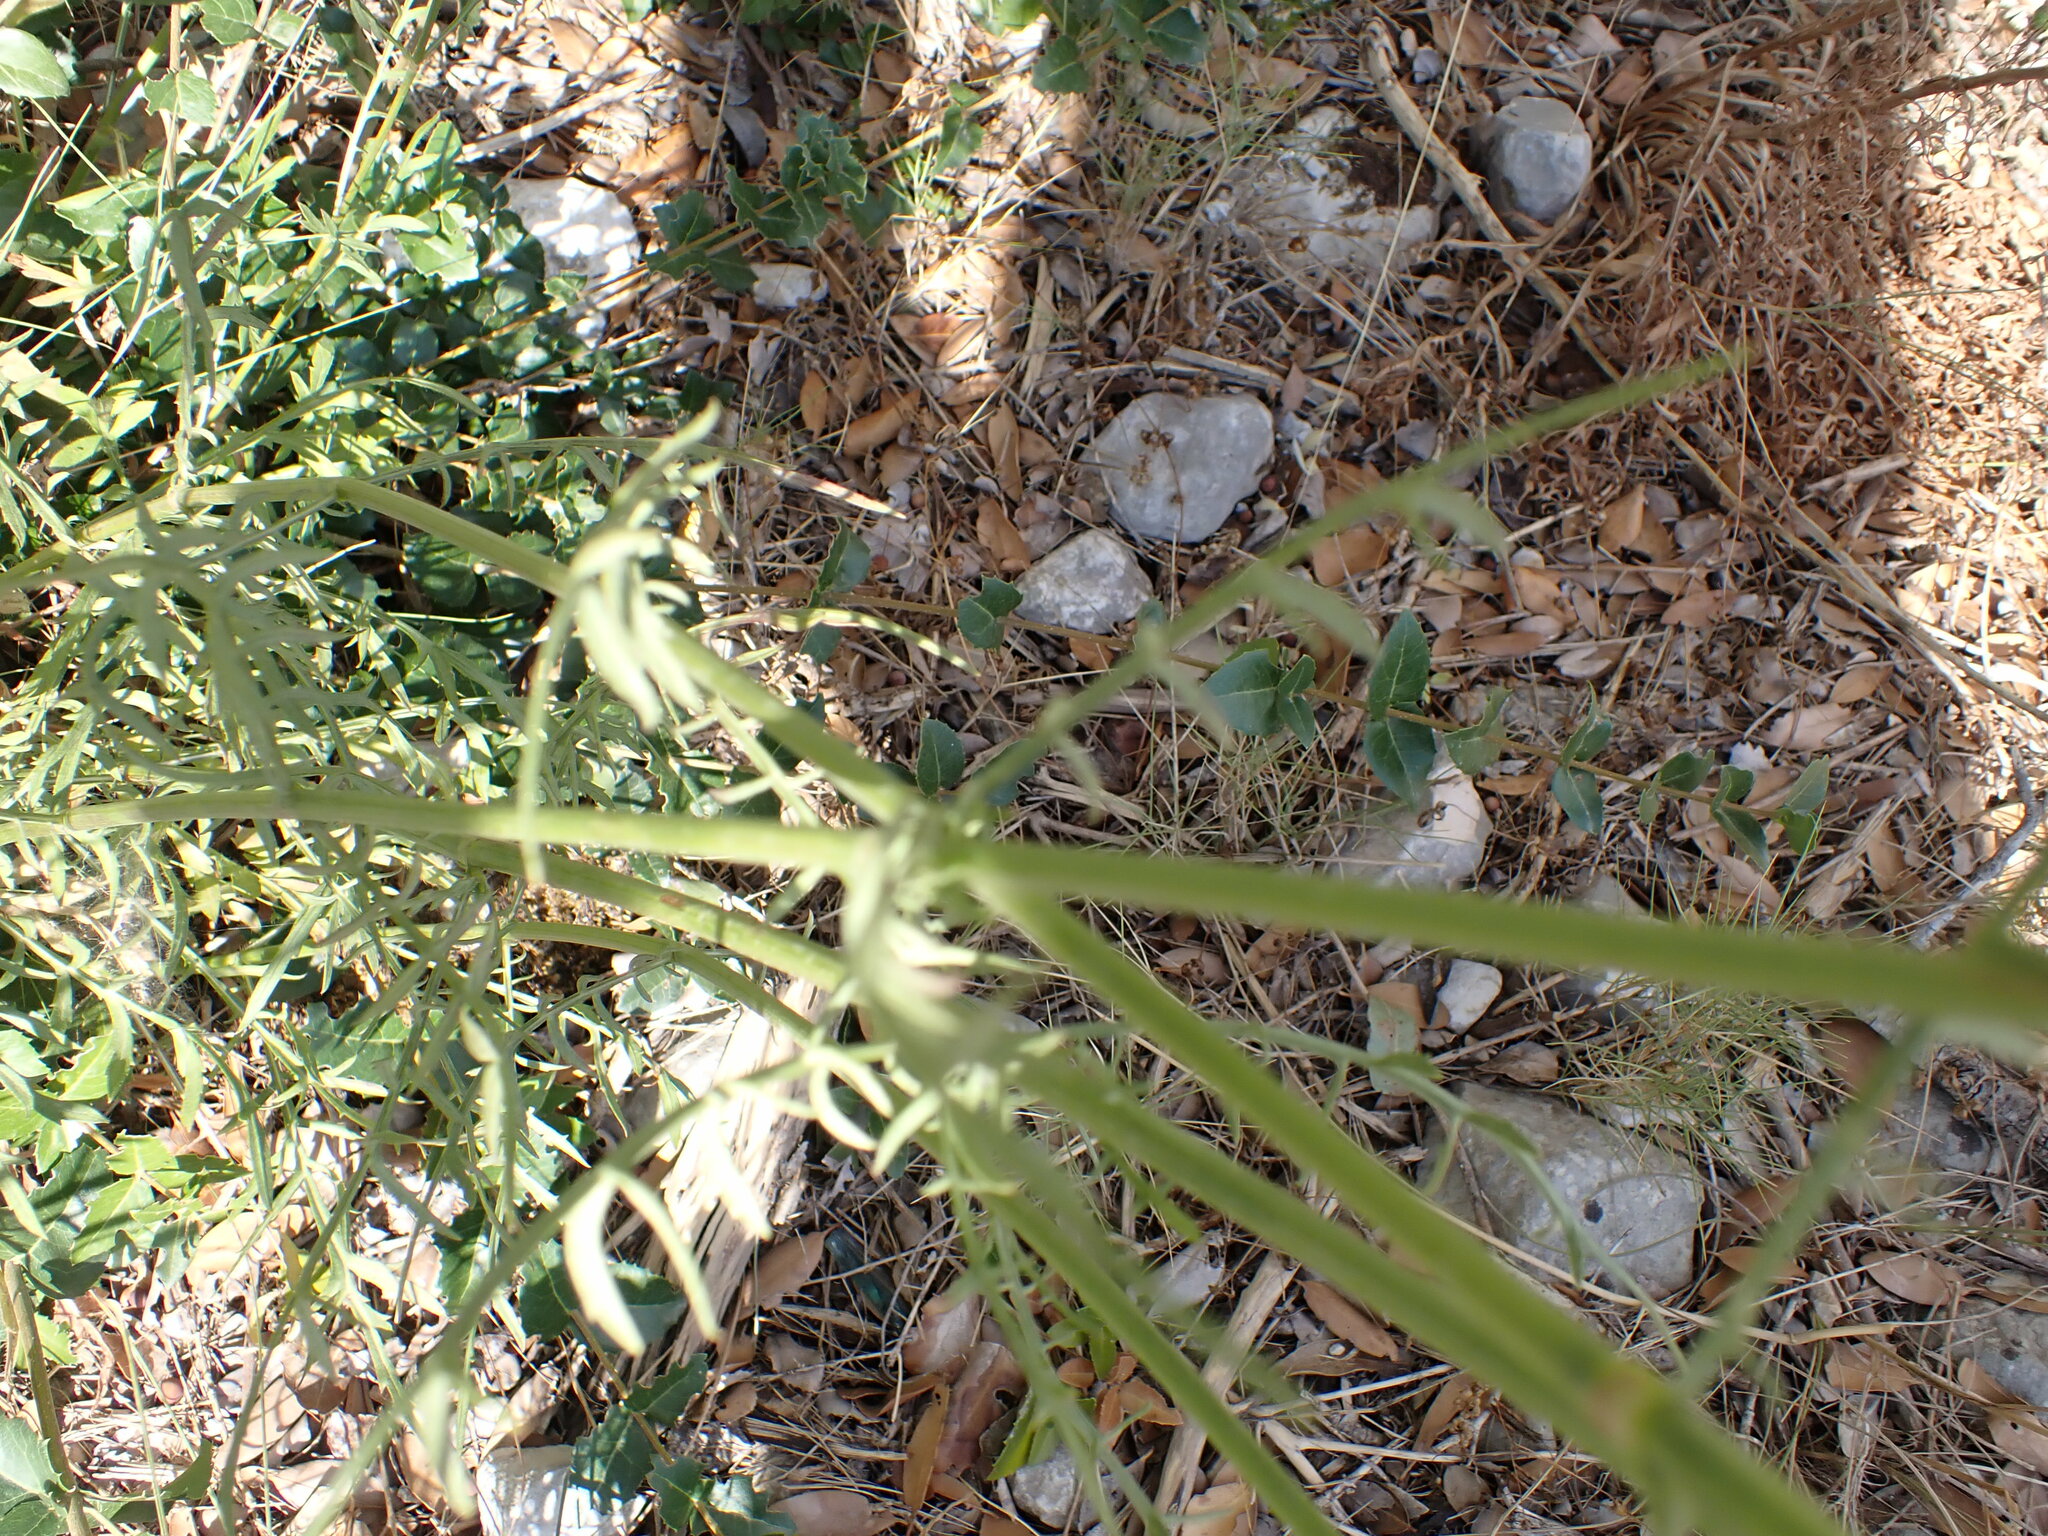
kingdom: Plantae
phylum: Tracheophyta
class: Magnoliopsida
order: Dipsacales
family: Caprifoliaceae
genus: Cephalaria
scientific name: Cephalaria leucantha
